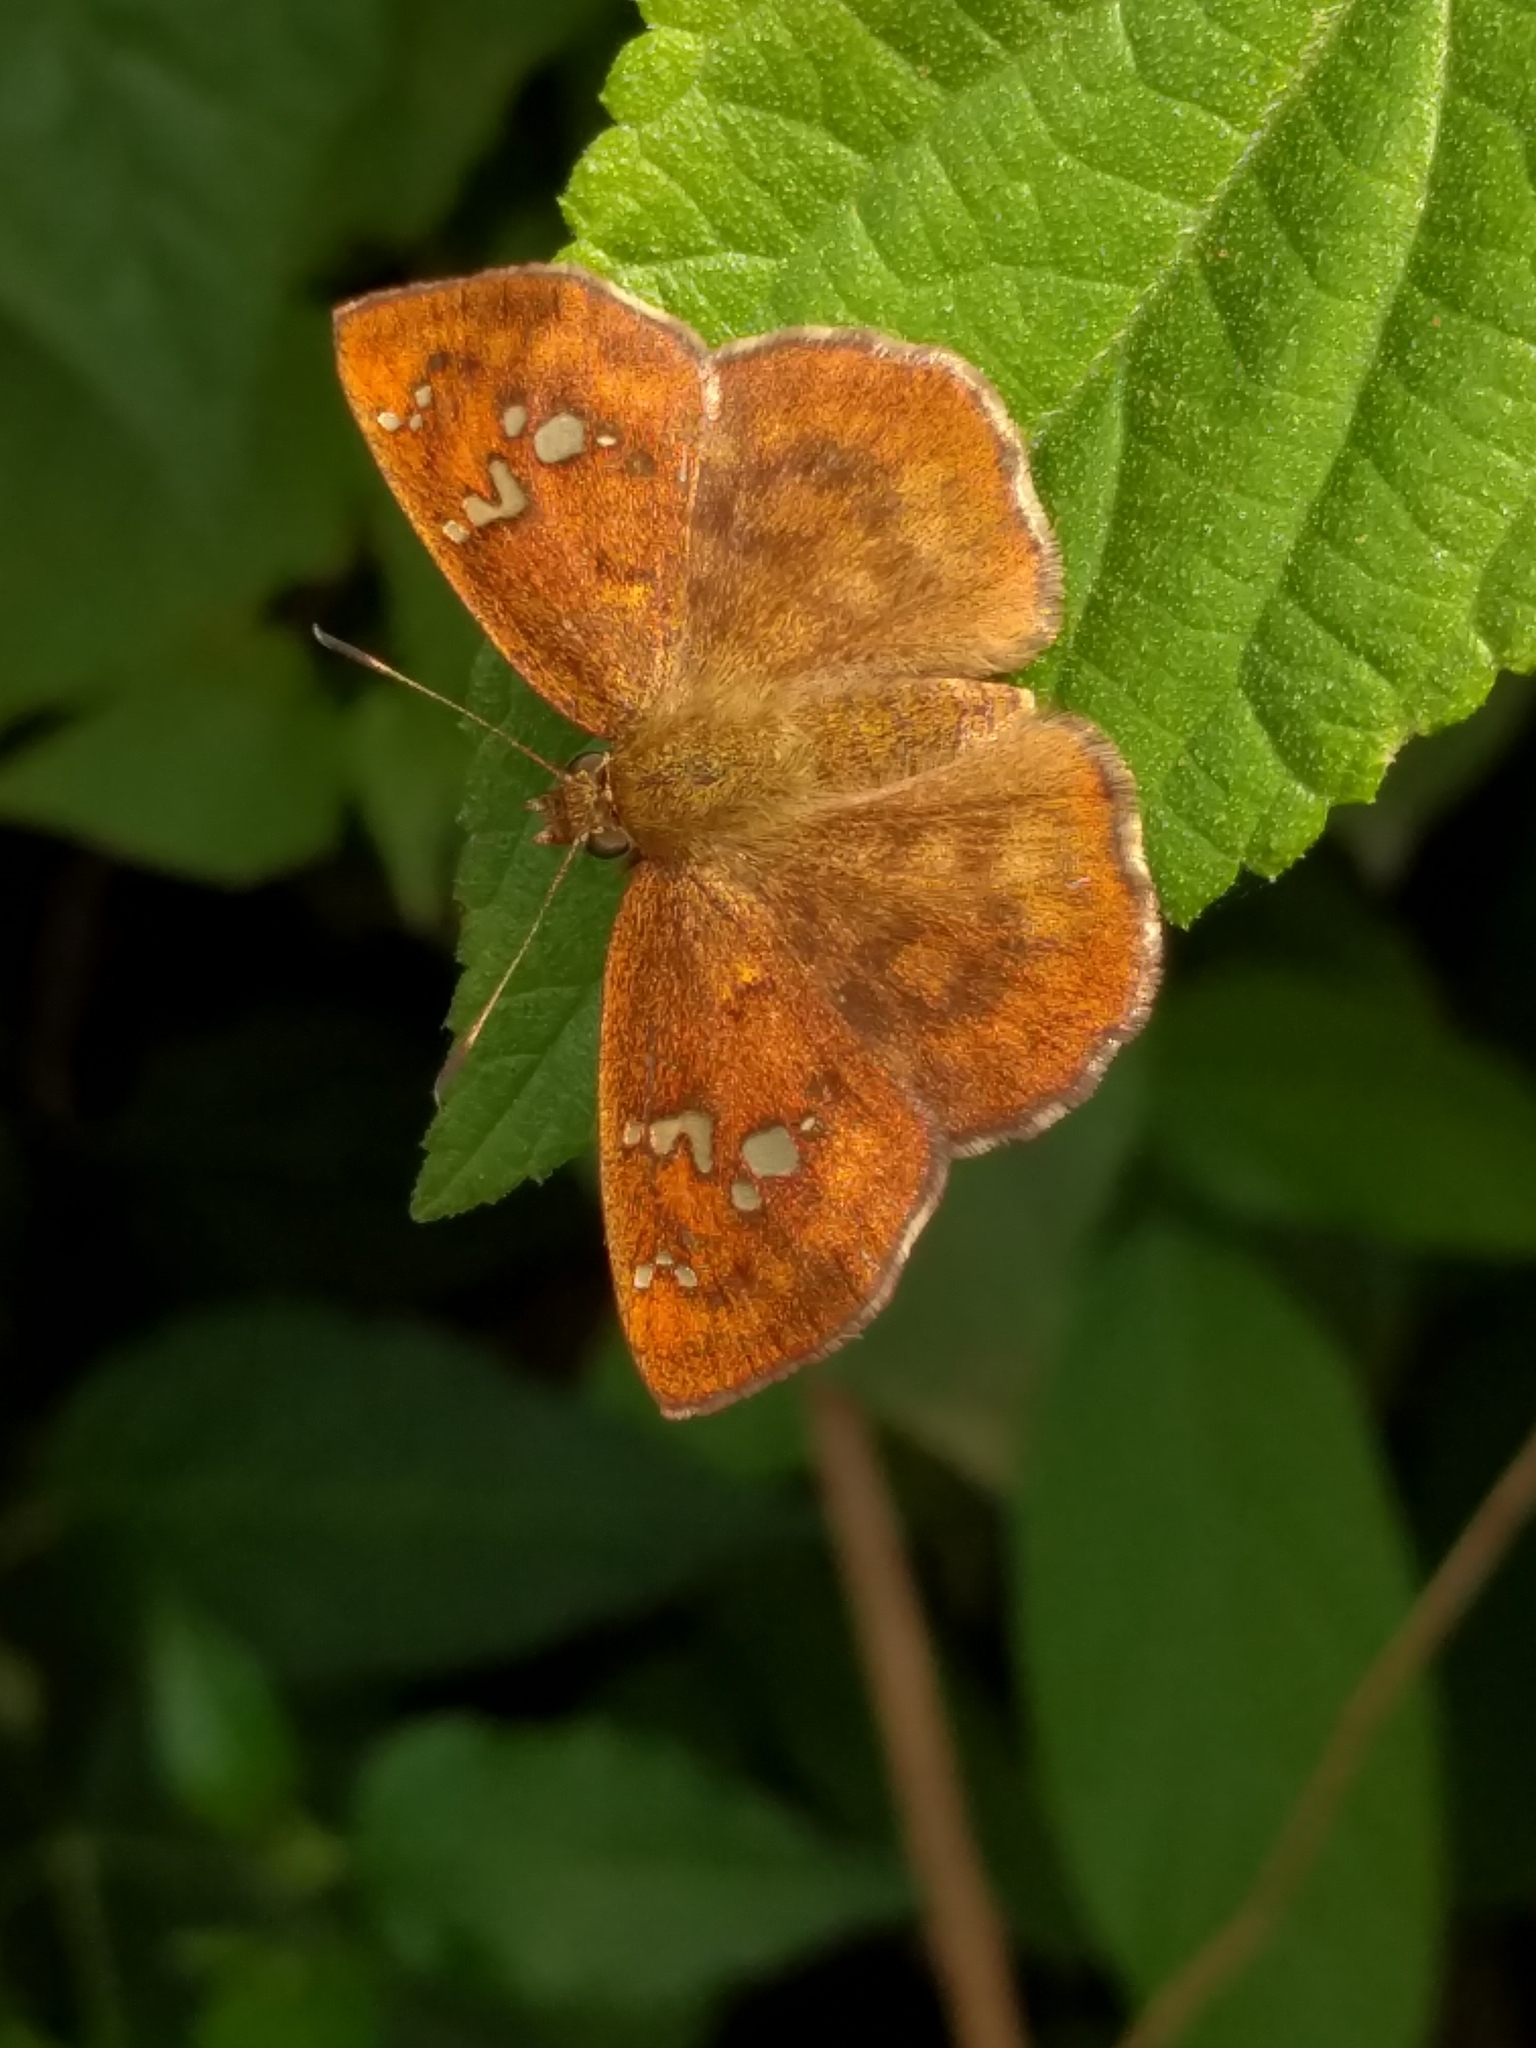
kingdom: Animalia
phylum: Arthropoda
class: Insecta
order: Lepidoptera
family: Hesperiidae
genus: Pseudocoladenia
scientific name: Pseudocoladenia dan
